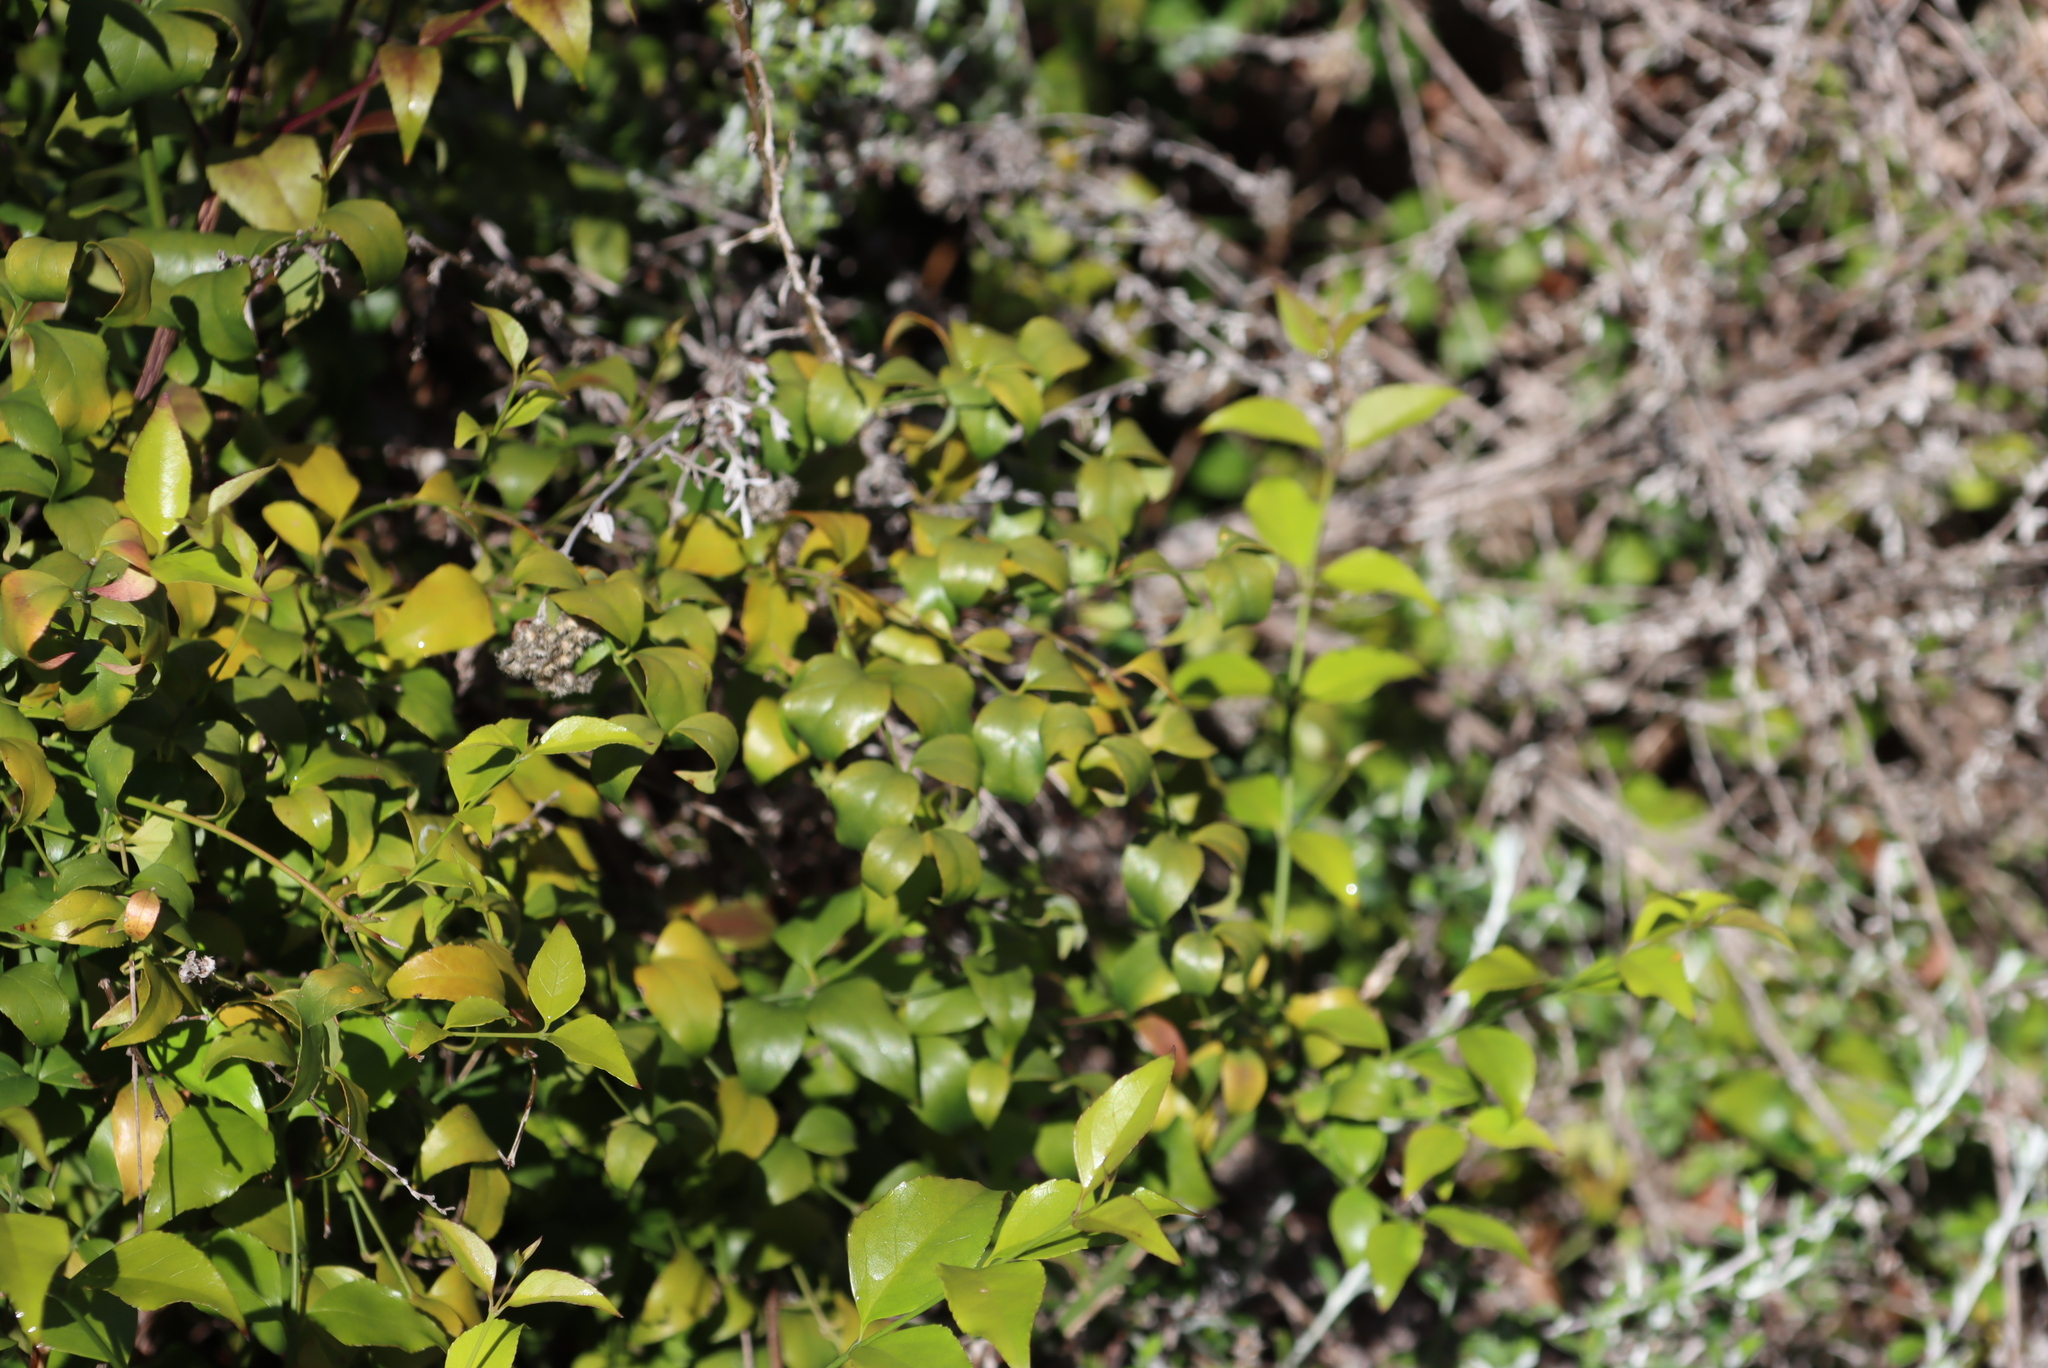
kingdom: Plantae
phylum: Tracheophyta
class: Magnoliopsida
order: Lamiales
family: Stilbaceae
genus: Halleria
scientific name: Halleria lucida
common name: Tree fuschia
